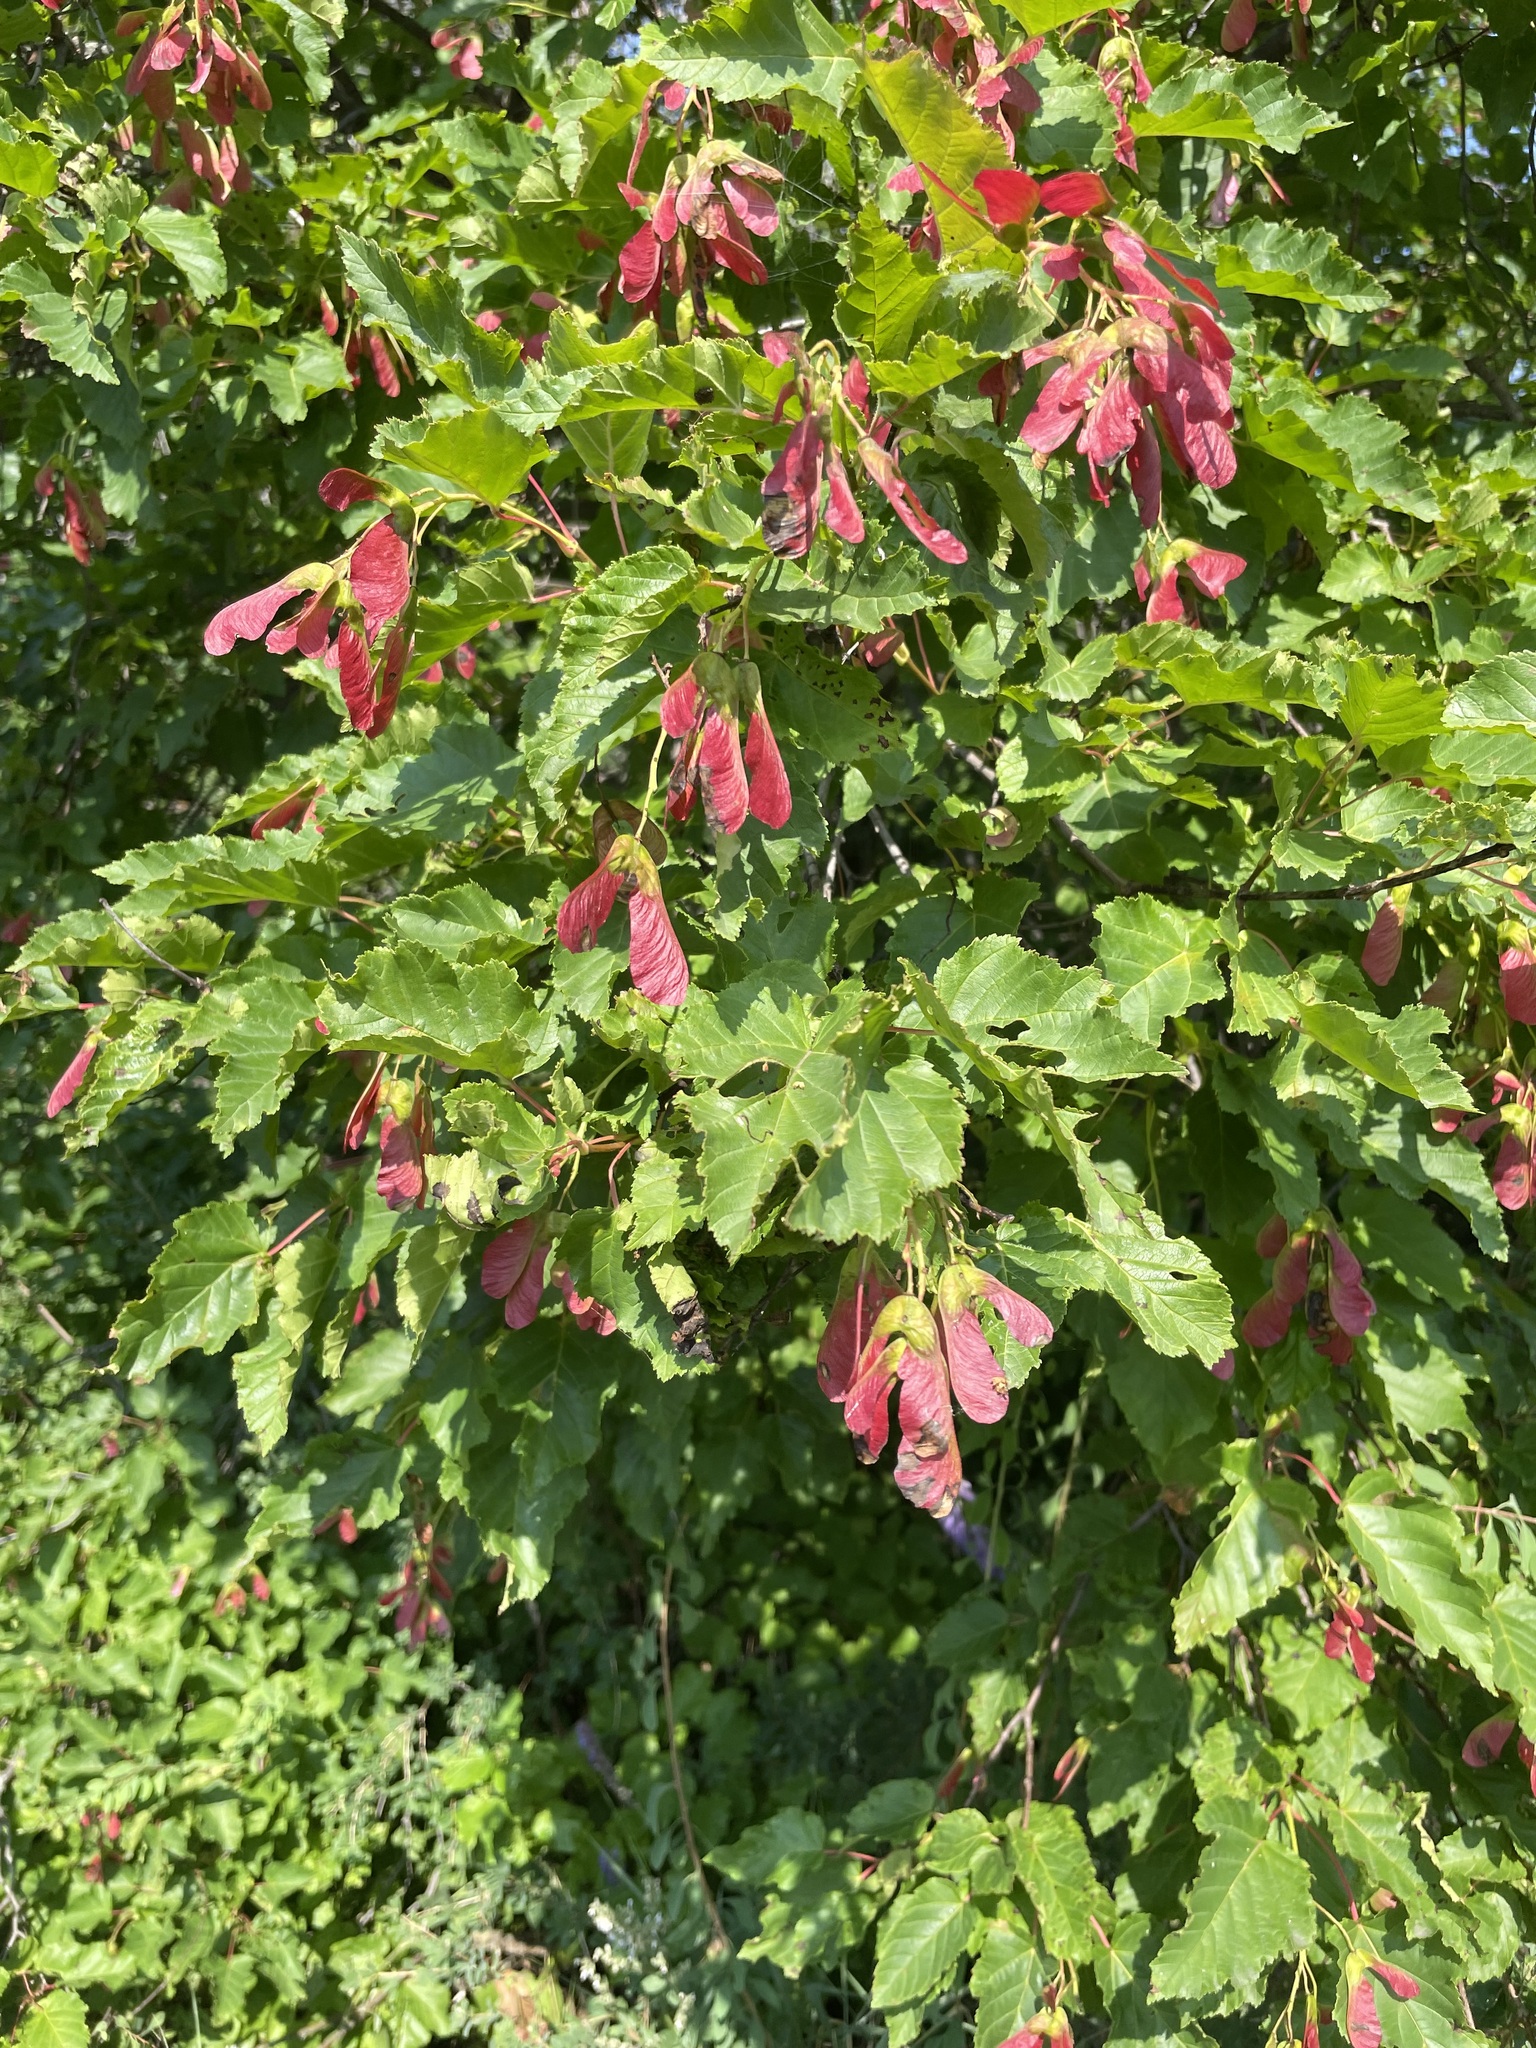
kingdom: Plantae
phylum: Tracheophyta
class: Magnoliopsida
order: Sapindales
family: Sapindaceae
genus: Acer
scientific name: Acer tataricum
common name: Tartar maple
